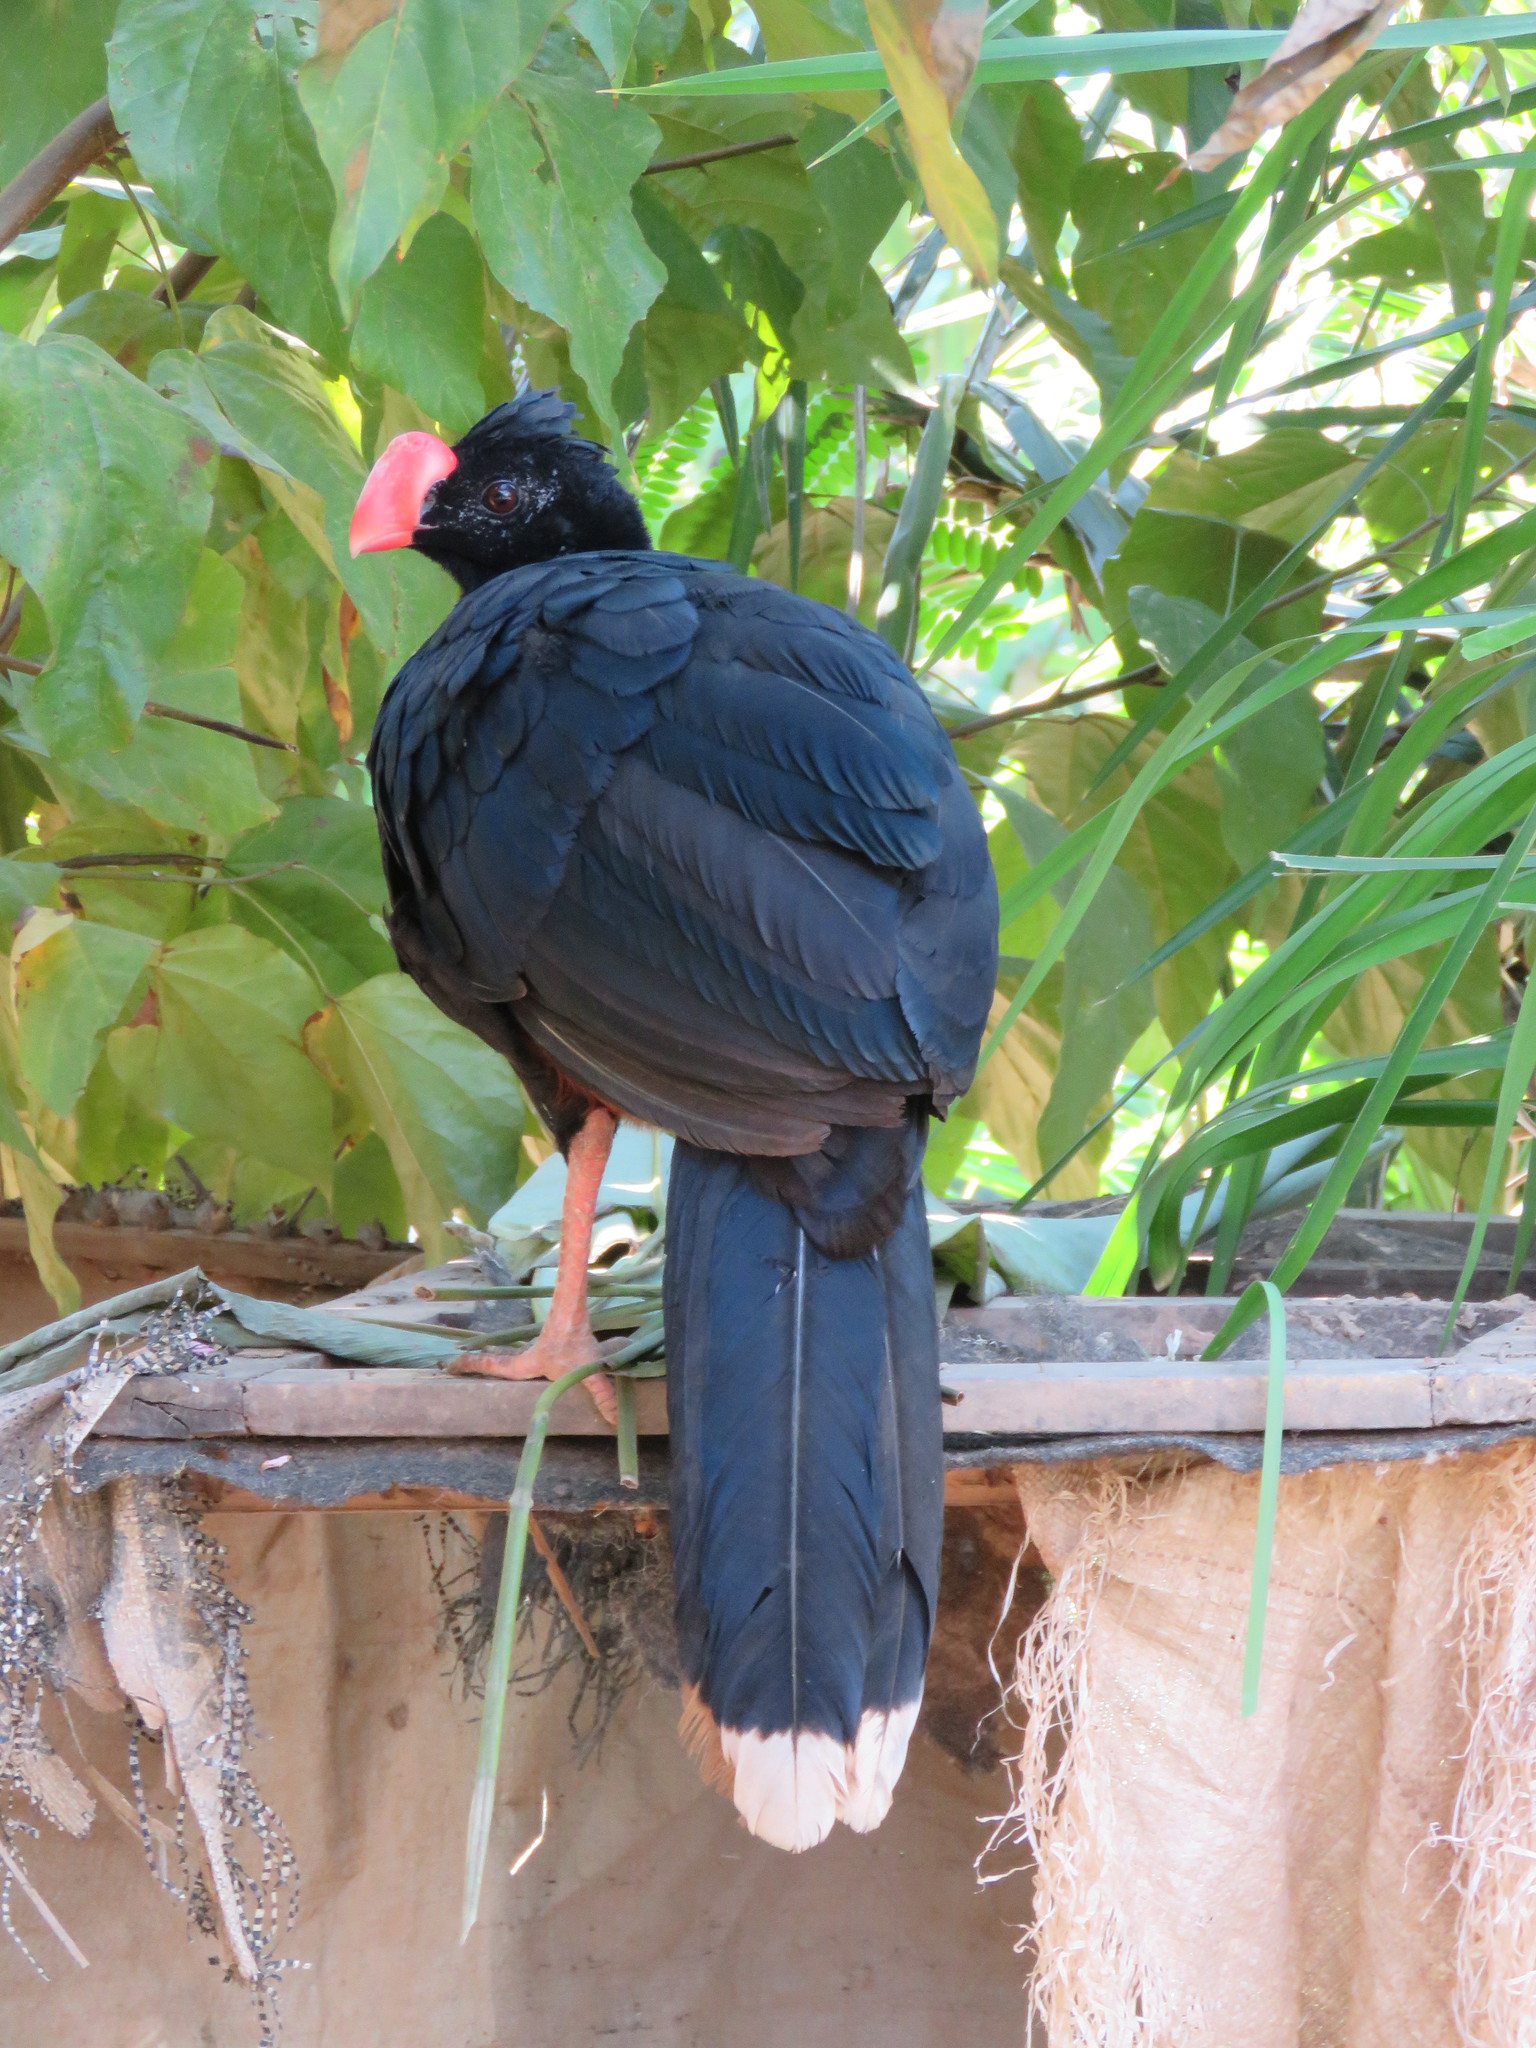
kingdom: Animalia
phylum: Chordata
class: Aves
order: Galliformes
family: Cracidae
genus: Mitu
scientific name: Mitu tuberosum
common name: Razor-billed curassow
